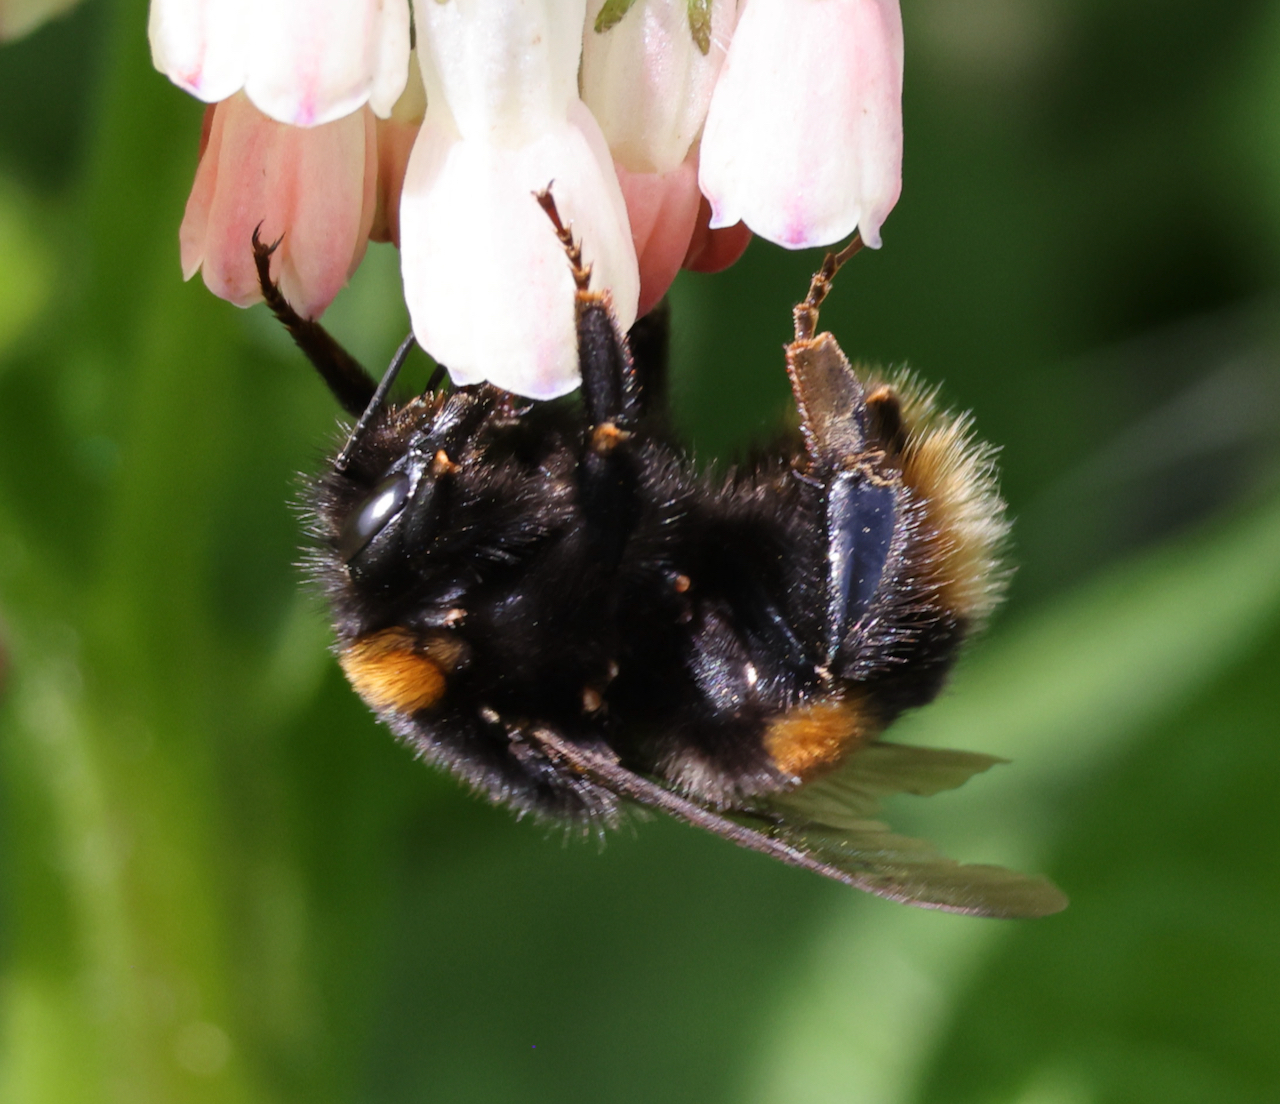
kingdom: Animalia
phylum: Arthropoda
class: Insecta
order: Hymenoptera
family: Apidae
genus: Bombus
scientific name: Bombus terrestris
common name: Buff-tailed bumblebee
